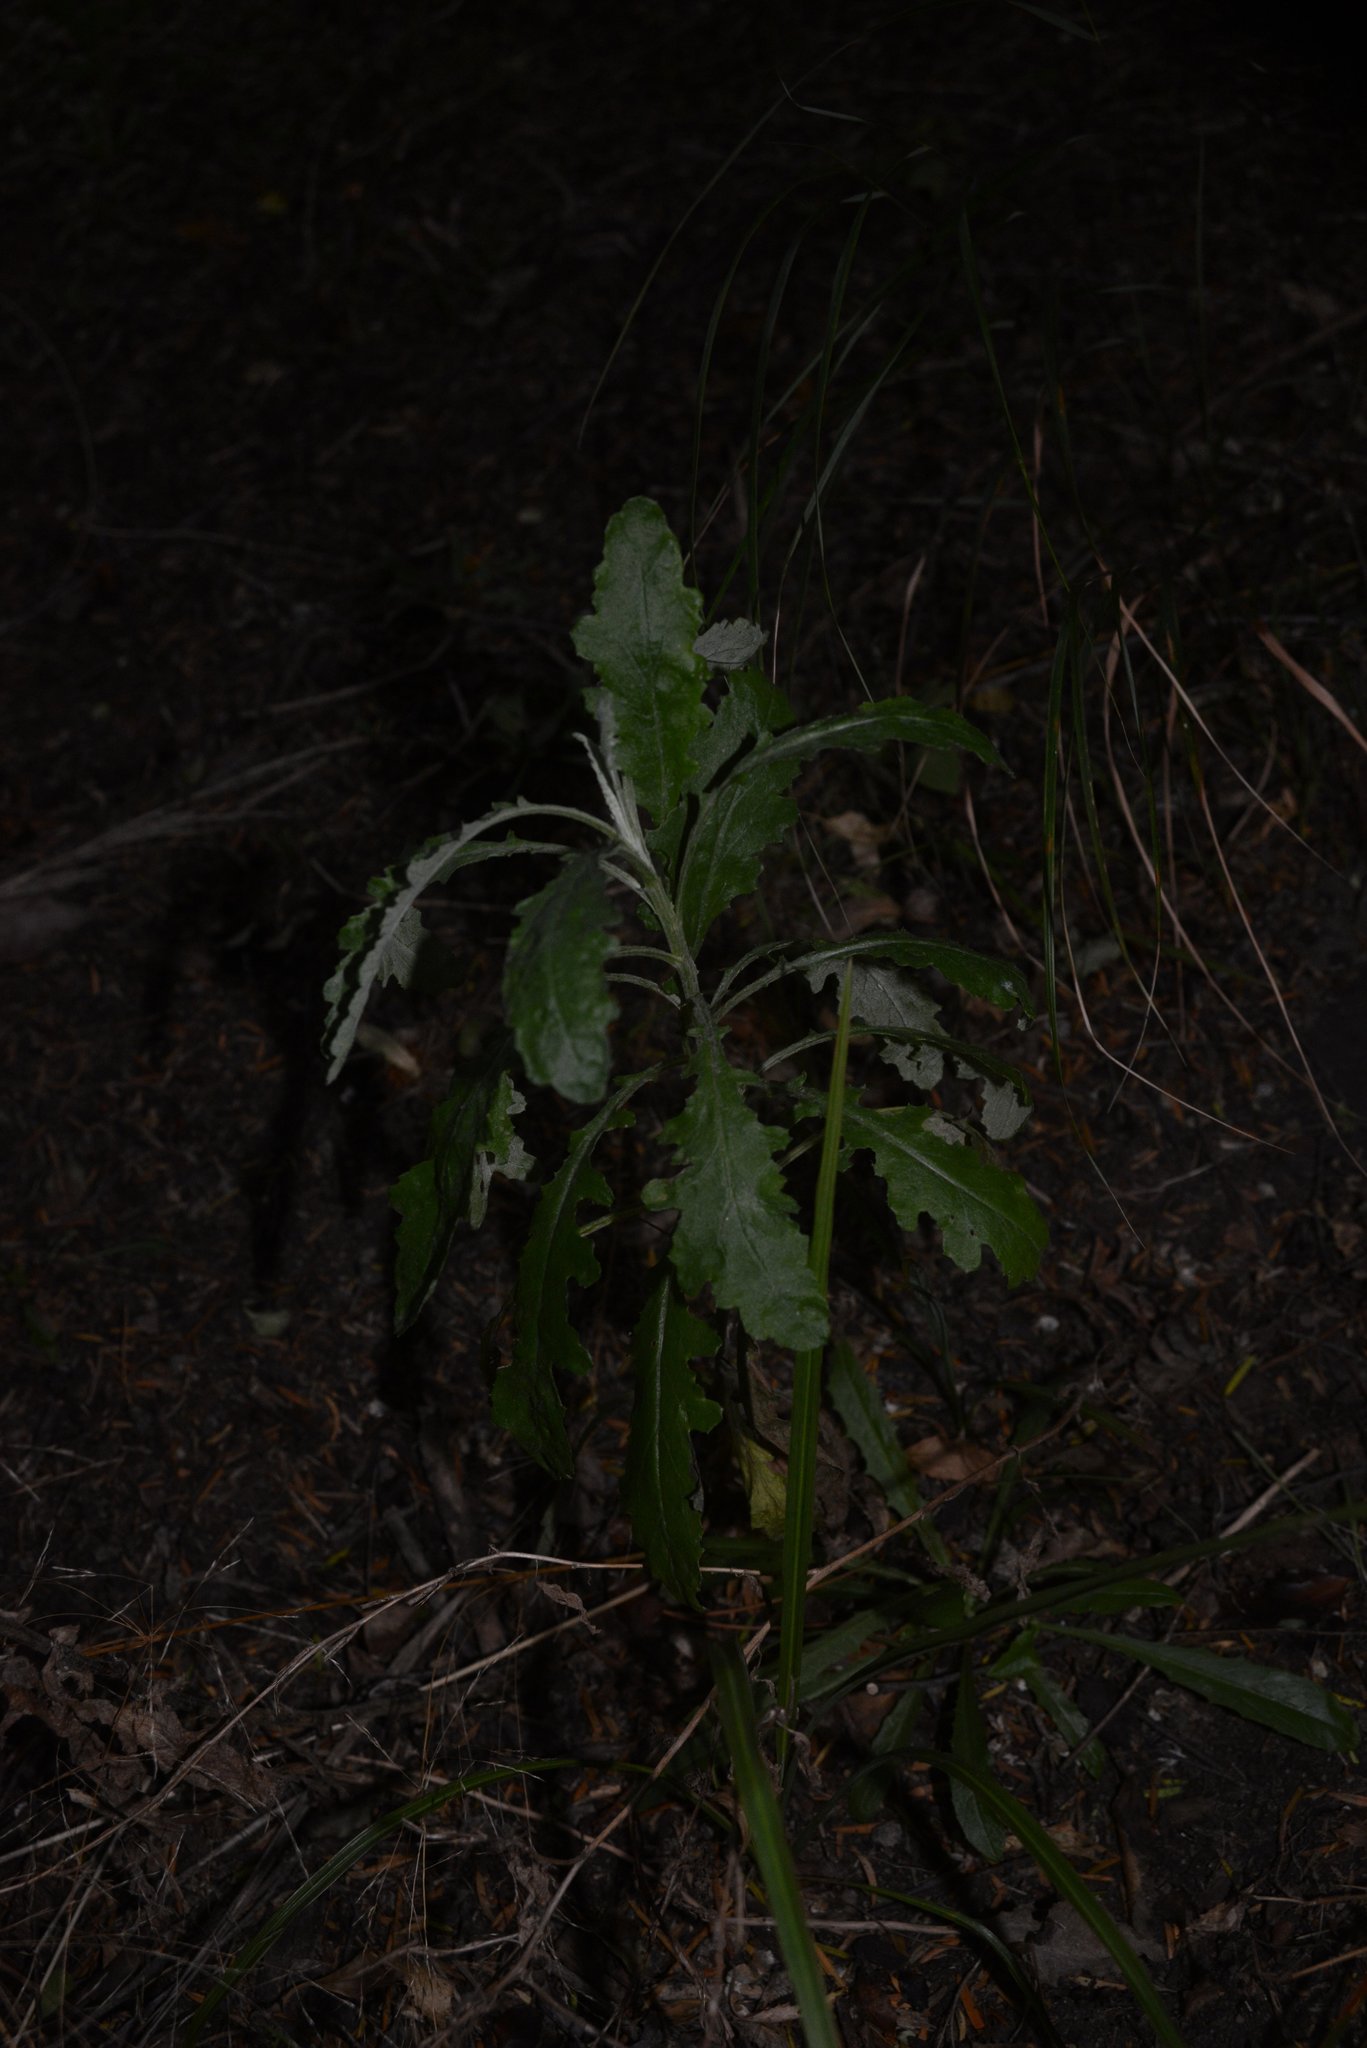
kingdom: Plantae
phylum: Tracheophyta
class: Magnoliopsida
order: Asterales
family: Asteraceae
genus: Senecio
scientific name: Senecio glomeratus
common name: Cutleaf burnweed
